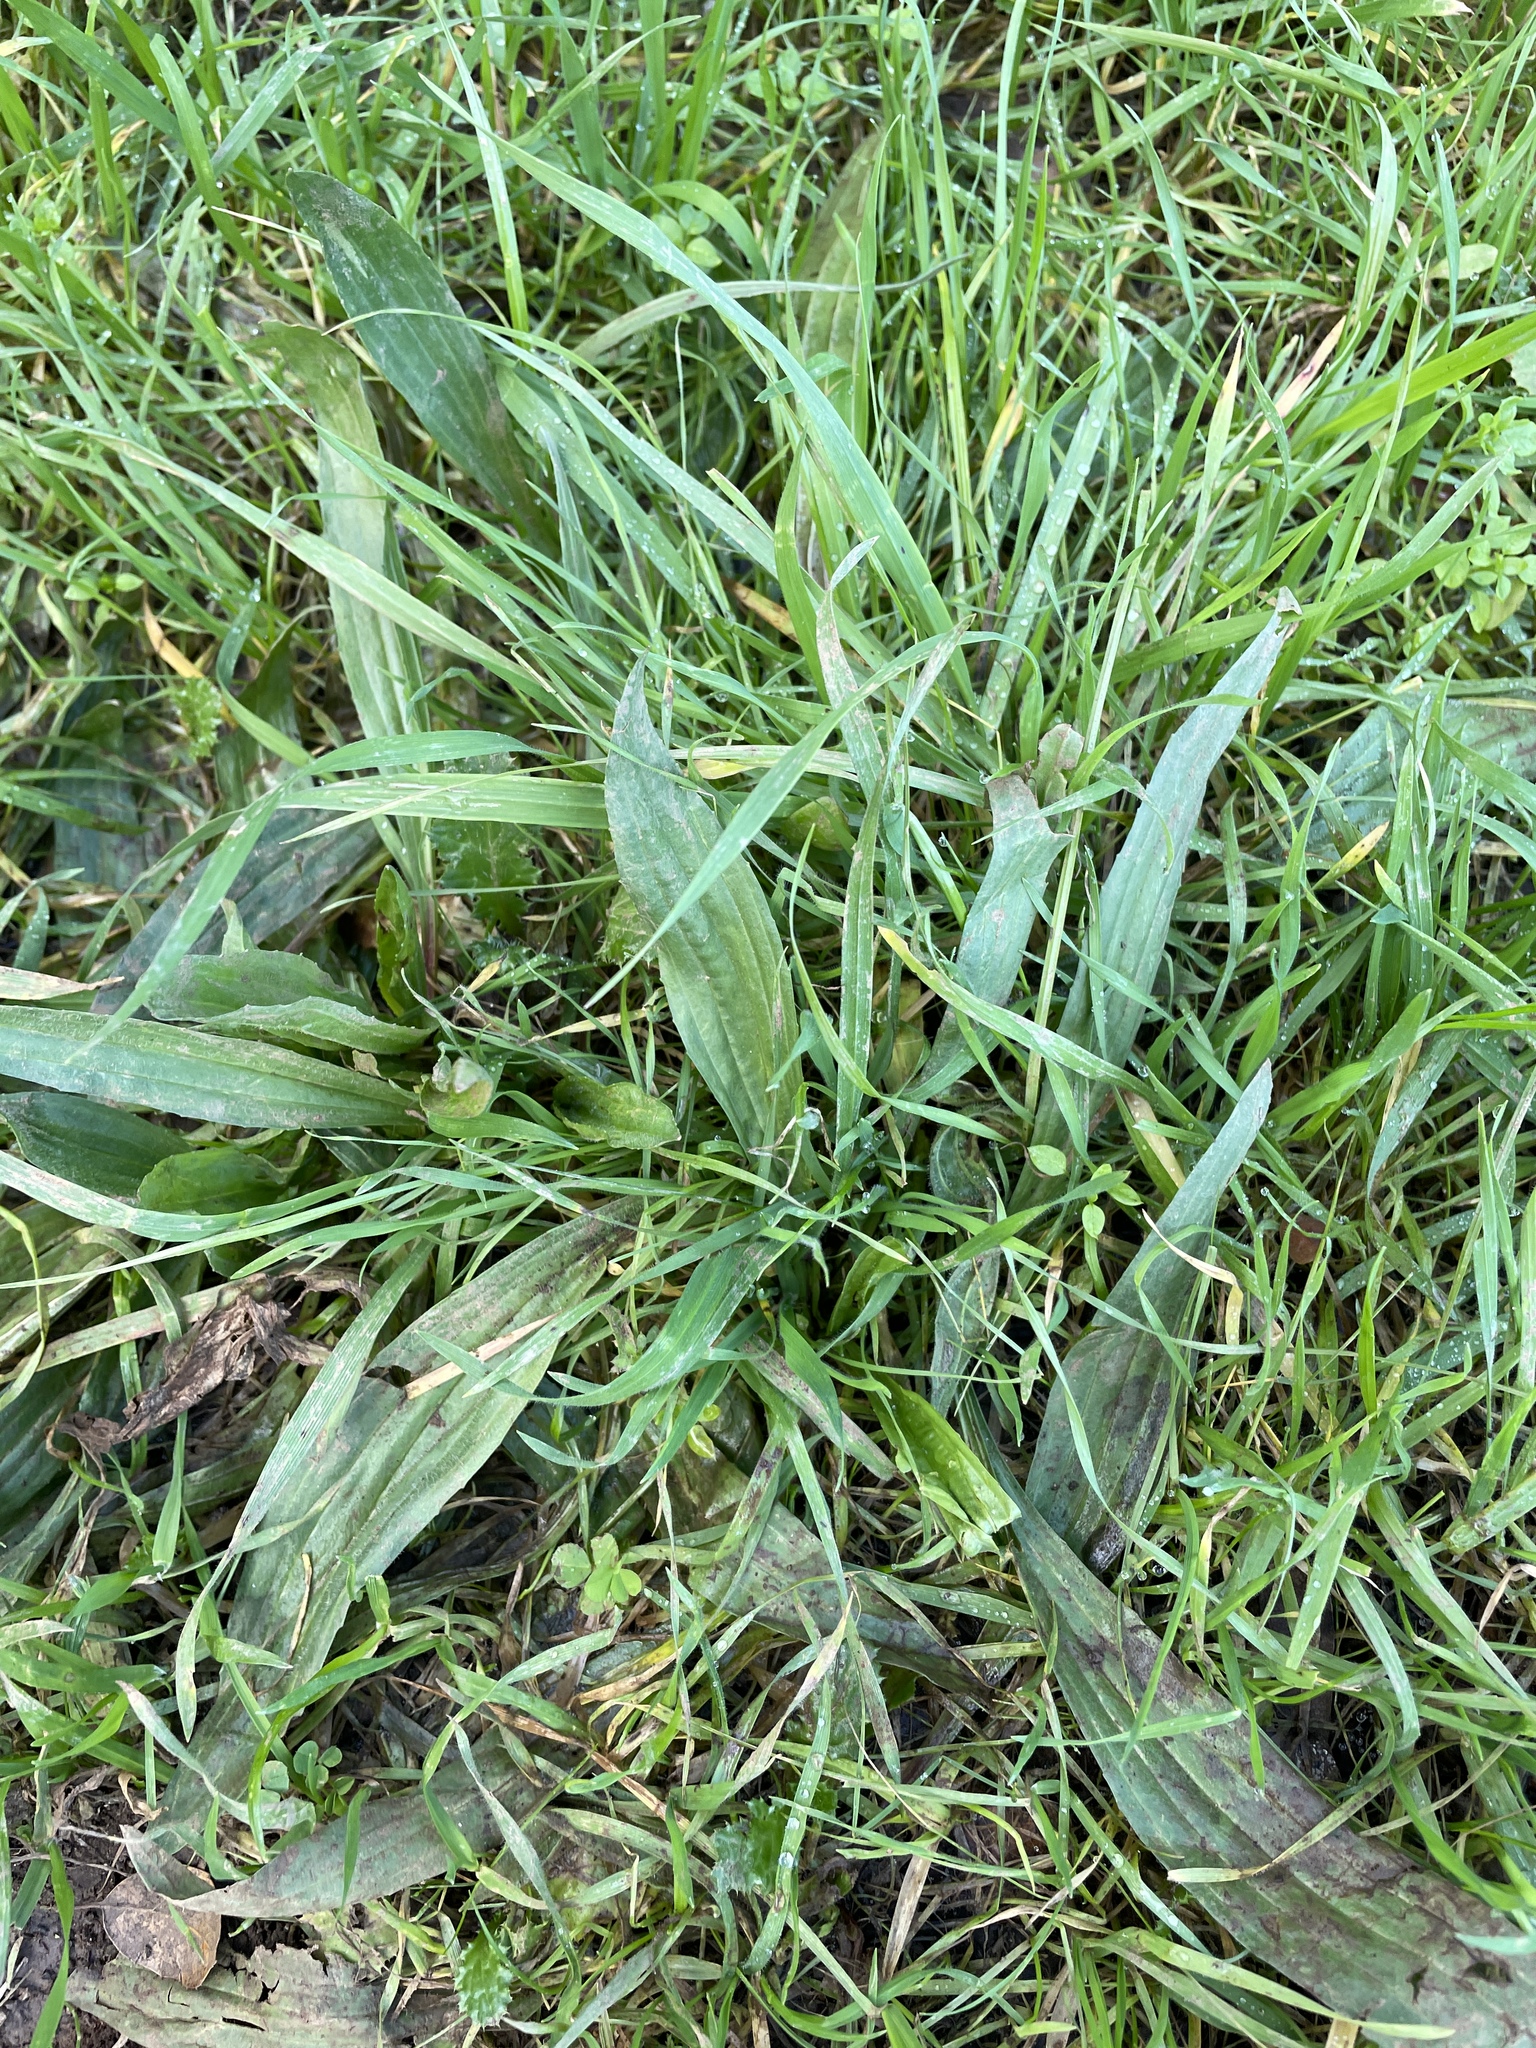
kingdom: Plantae
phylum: Tracheophyta
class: Magnoliopsida
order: Lamiales
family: Plantaginaceae
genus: Plantago
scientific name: Plantago lanceolata
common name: Ribwort plantain
